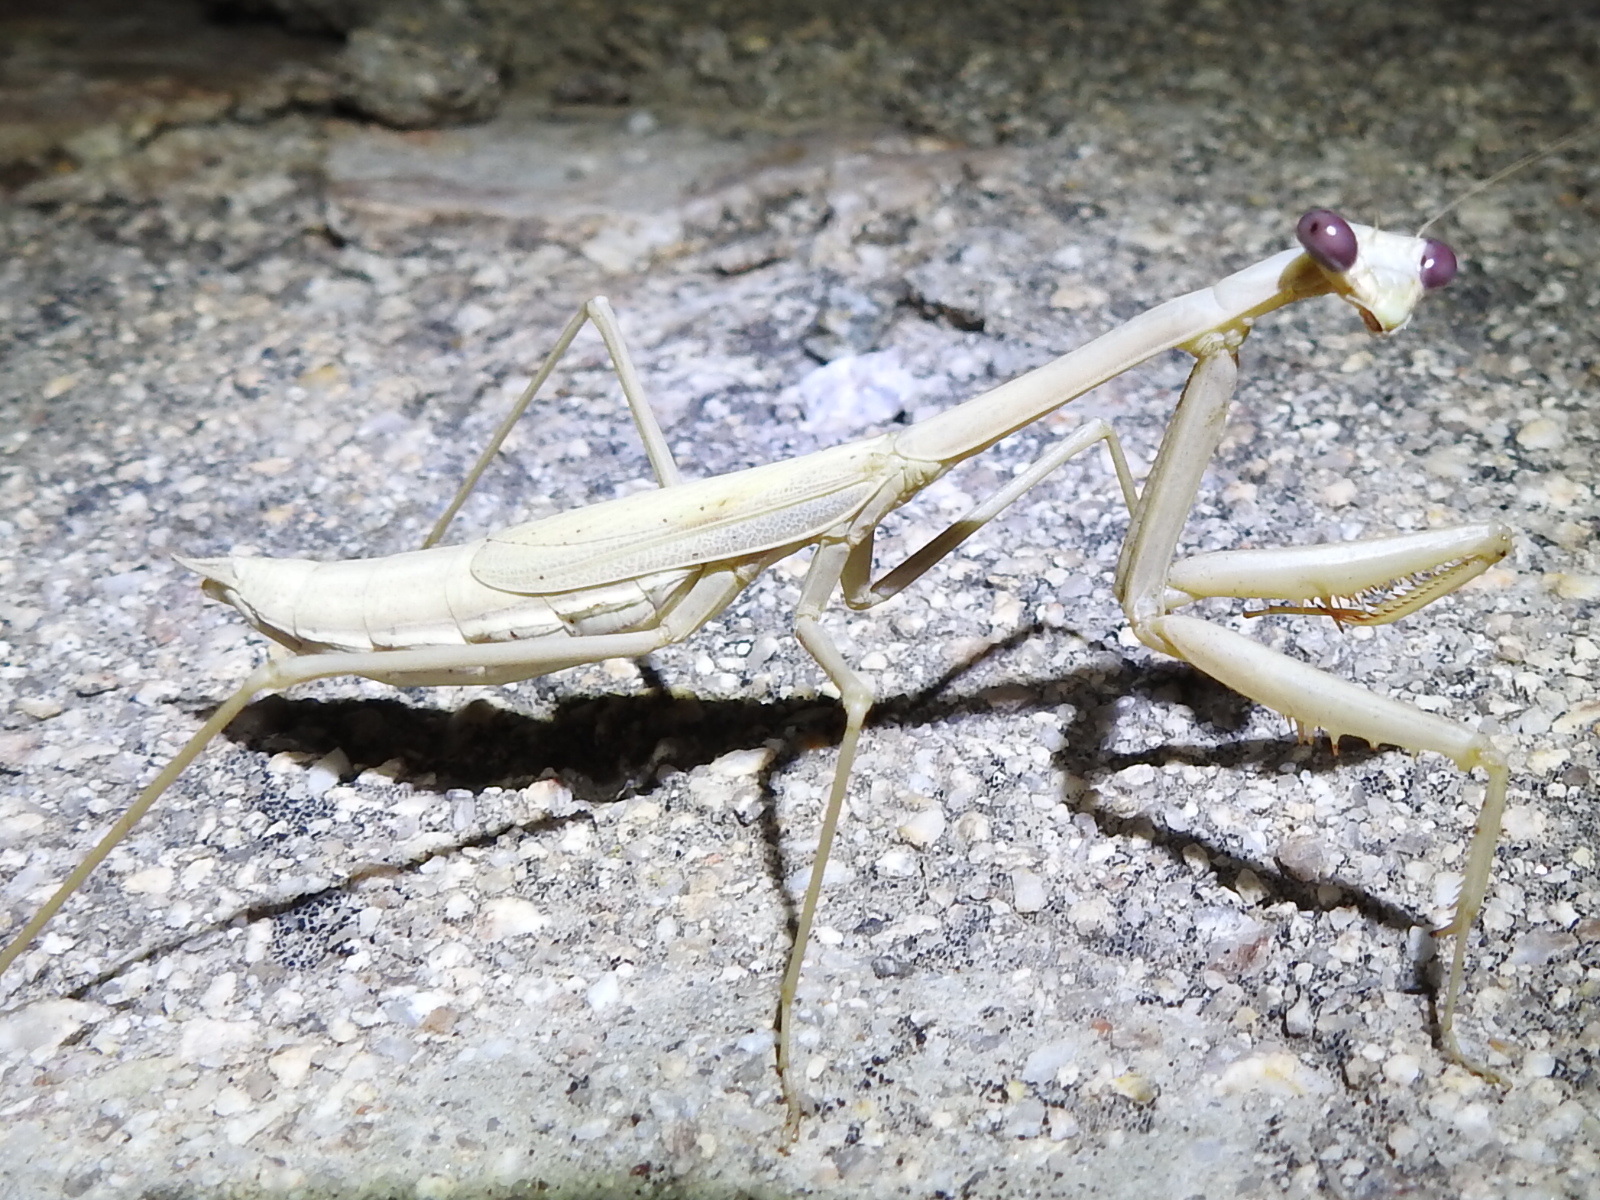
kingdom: Animalia
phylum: Arthropoda
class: Insecta
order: Mantodea
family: Mantidae
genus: Stagmomantis
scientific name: Stagmomantis gracilipes
